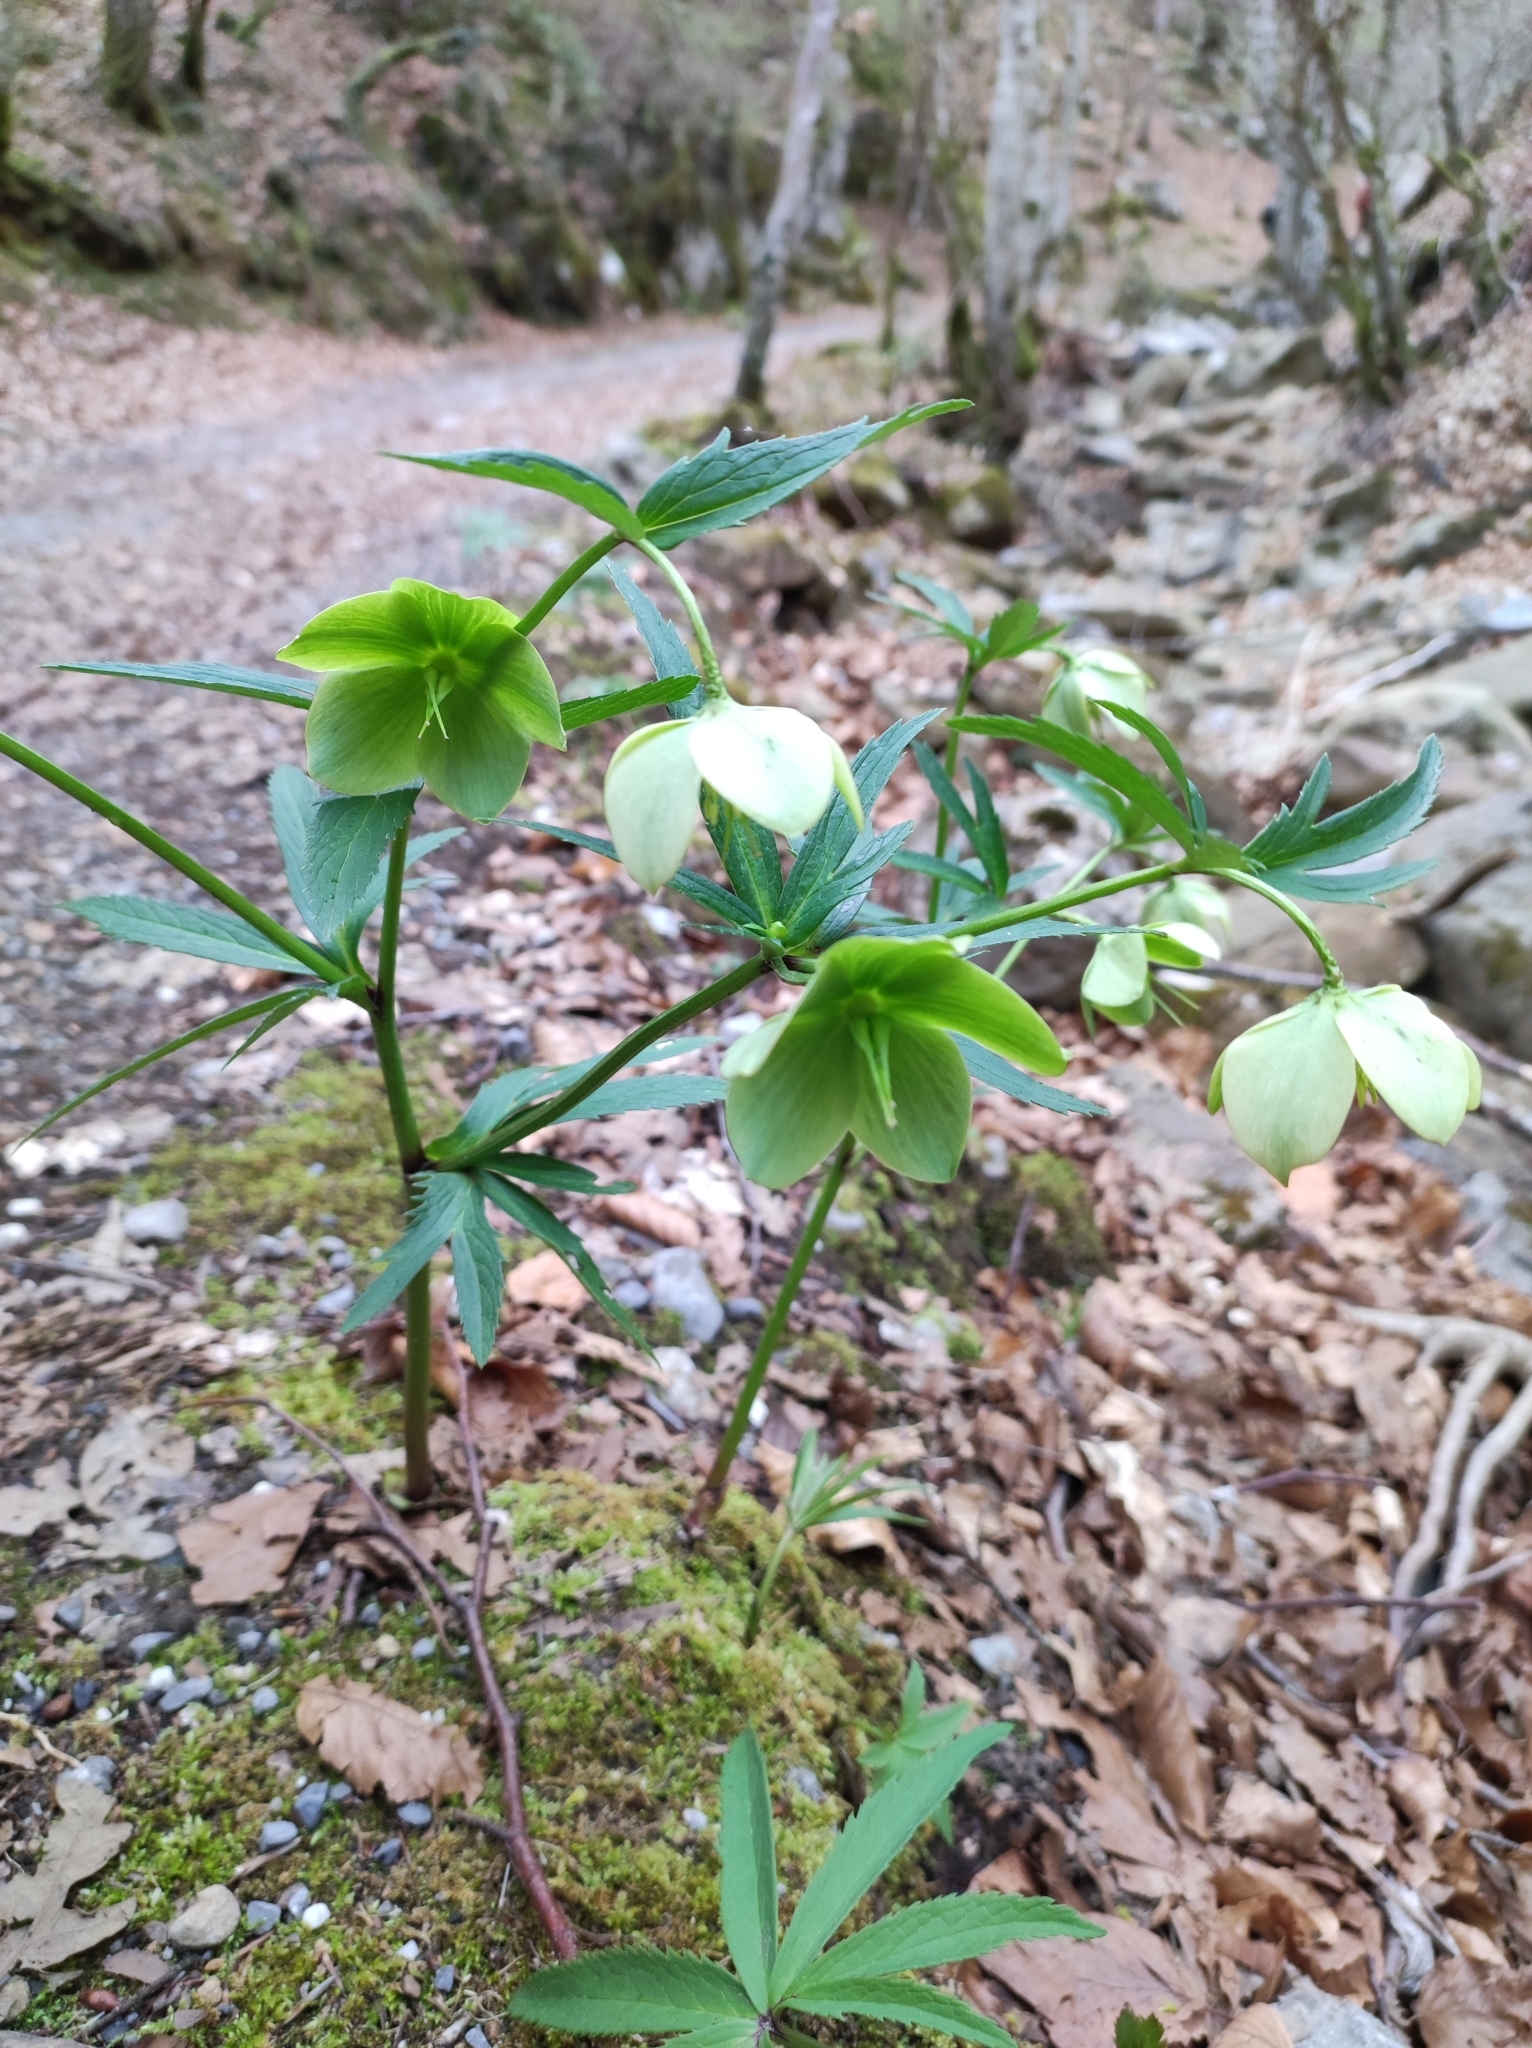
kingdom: Plantae
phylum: Tracheophyta
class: Magnoliopsida
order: Ranunculales
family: Ranunculaceae
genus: Helleborus
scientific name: Helleborus viridis
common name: Green hellebore
